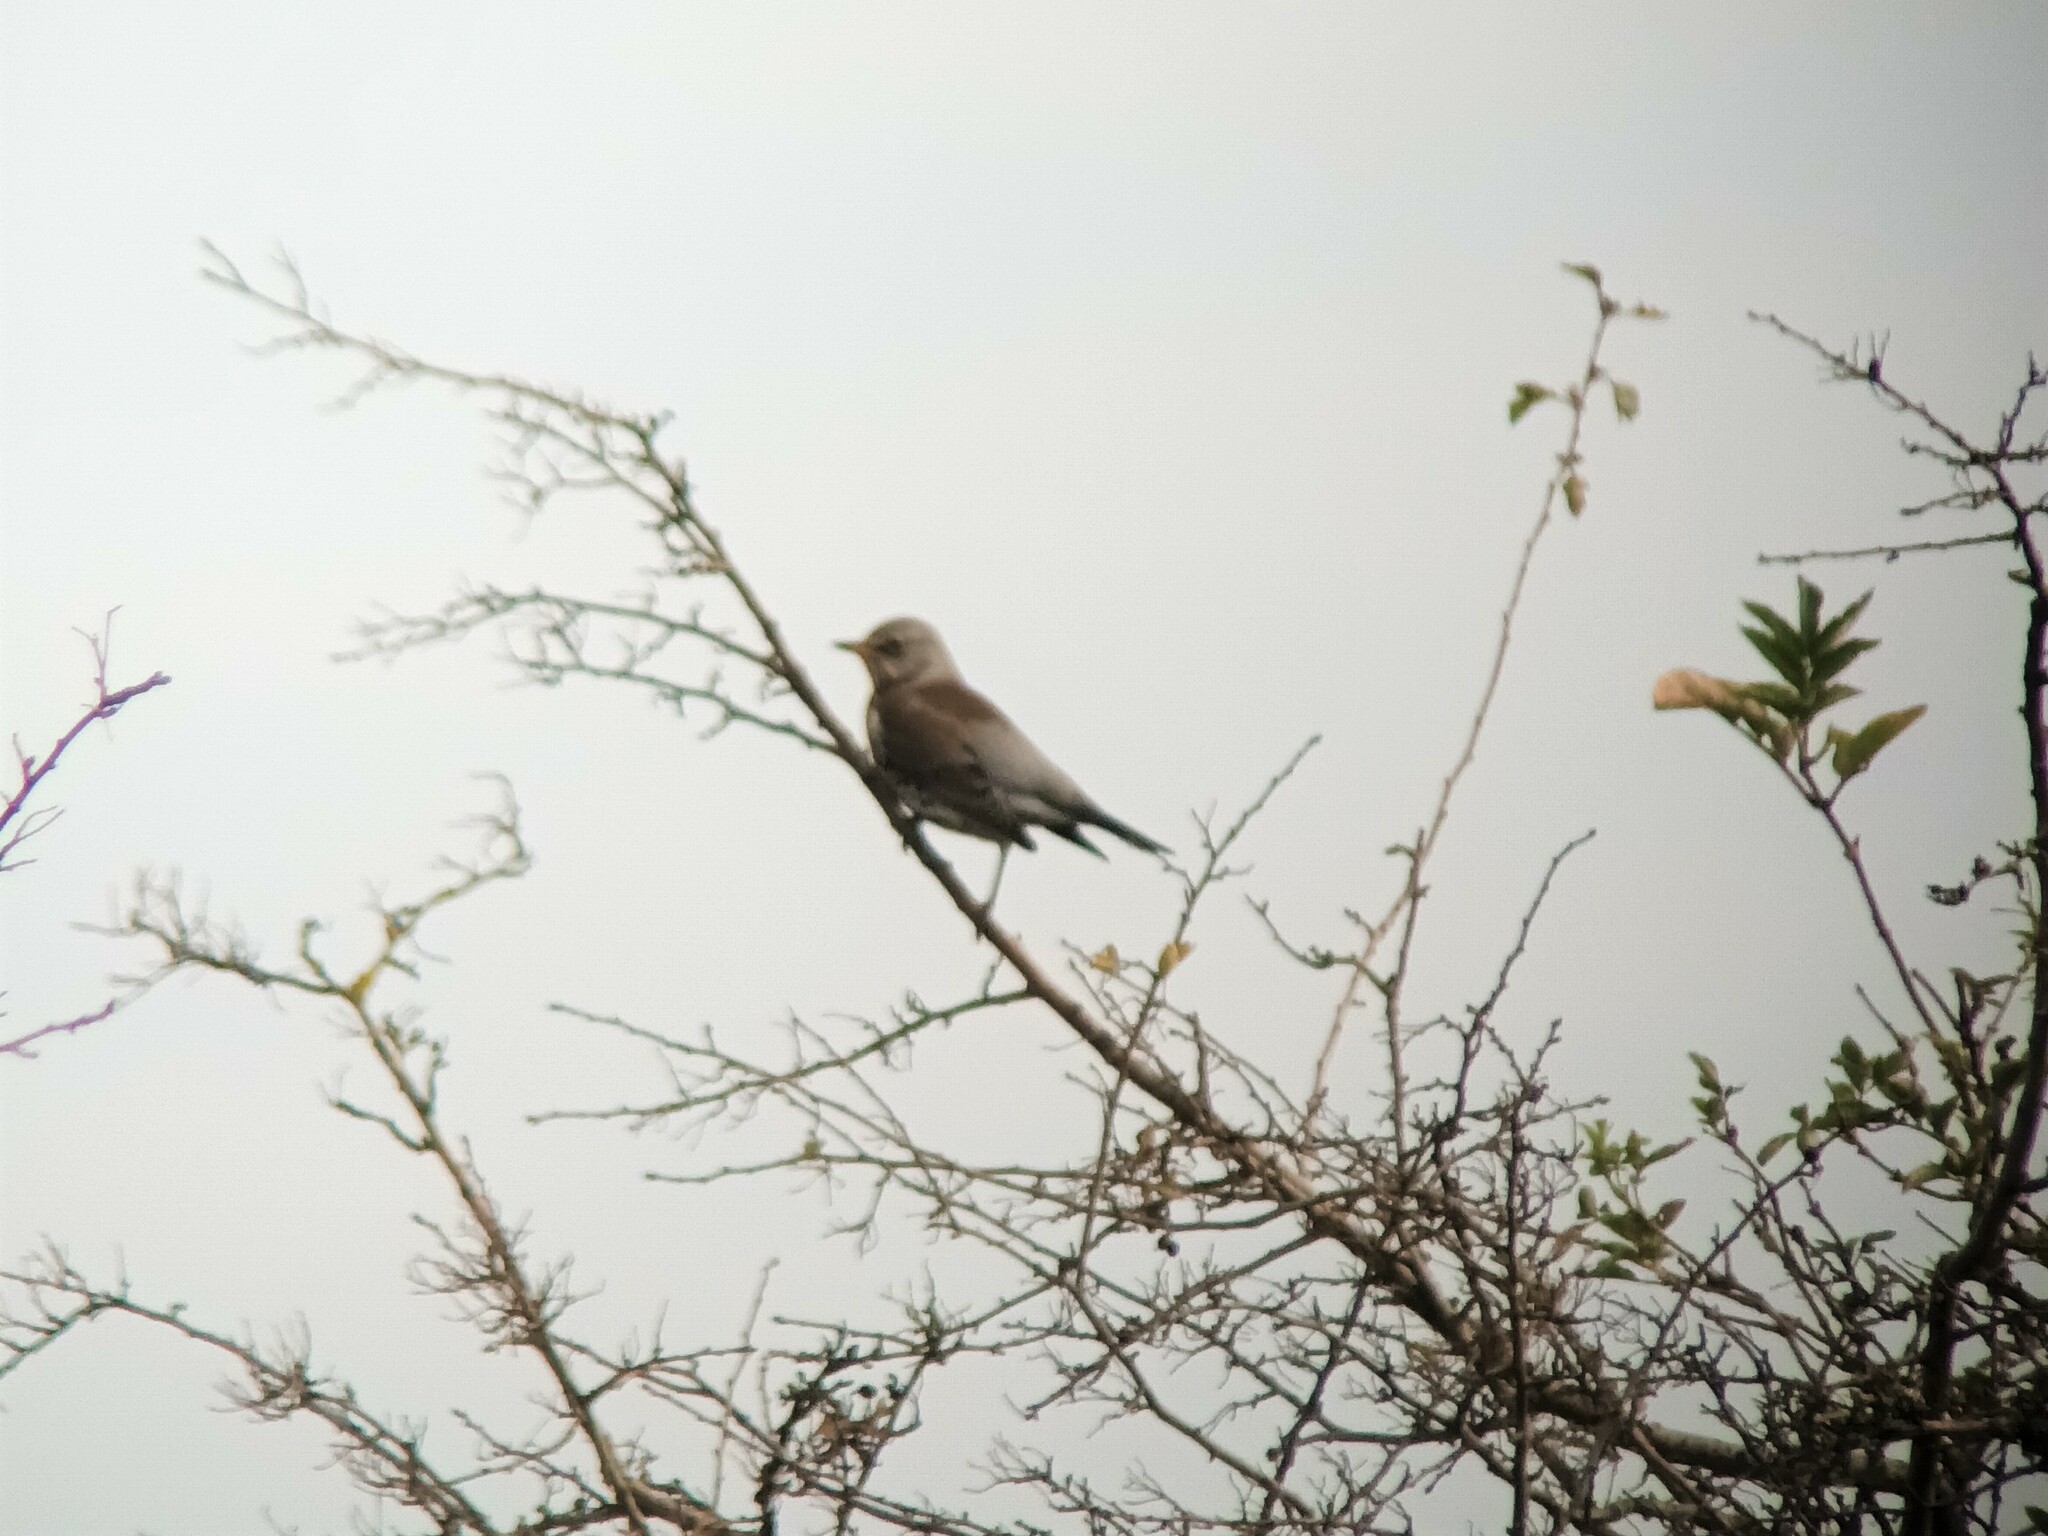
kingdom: Animalia
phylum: Chordata
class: Aves
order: Passeriformes
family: Turdidae
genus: Turdus
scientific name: Turdus pilaris
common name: Fieldfare
